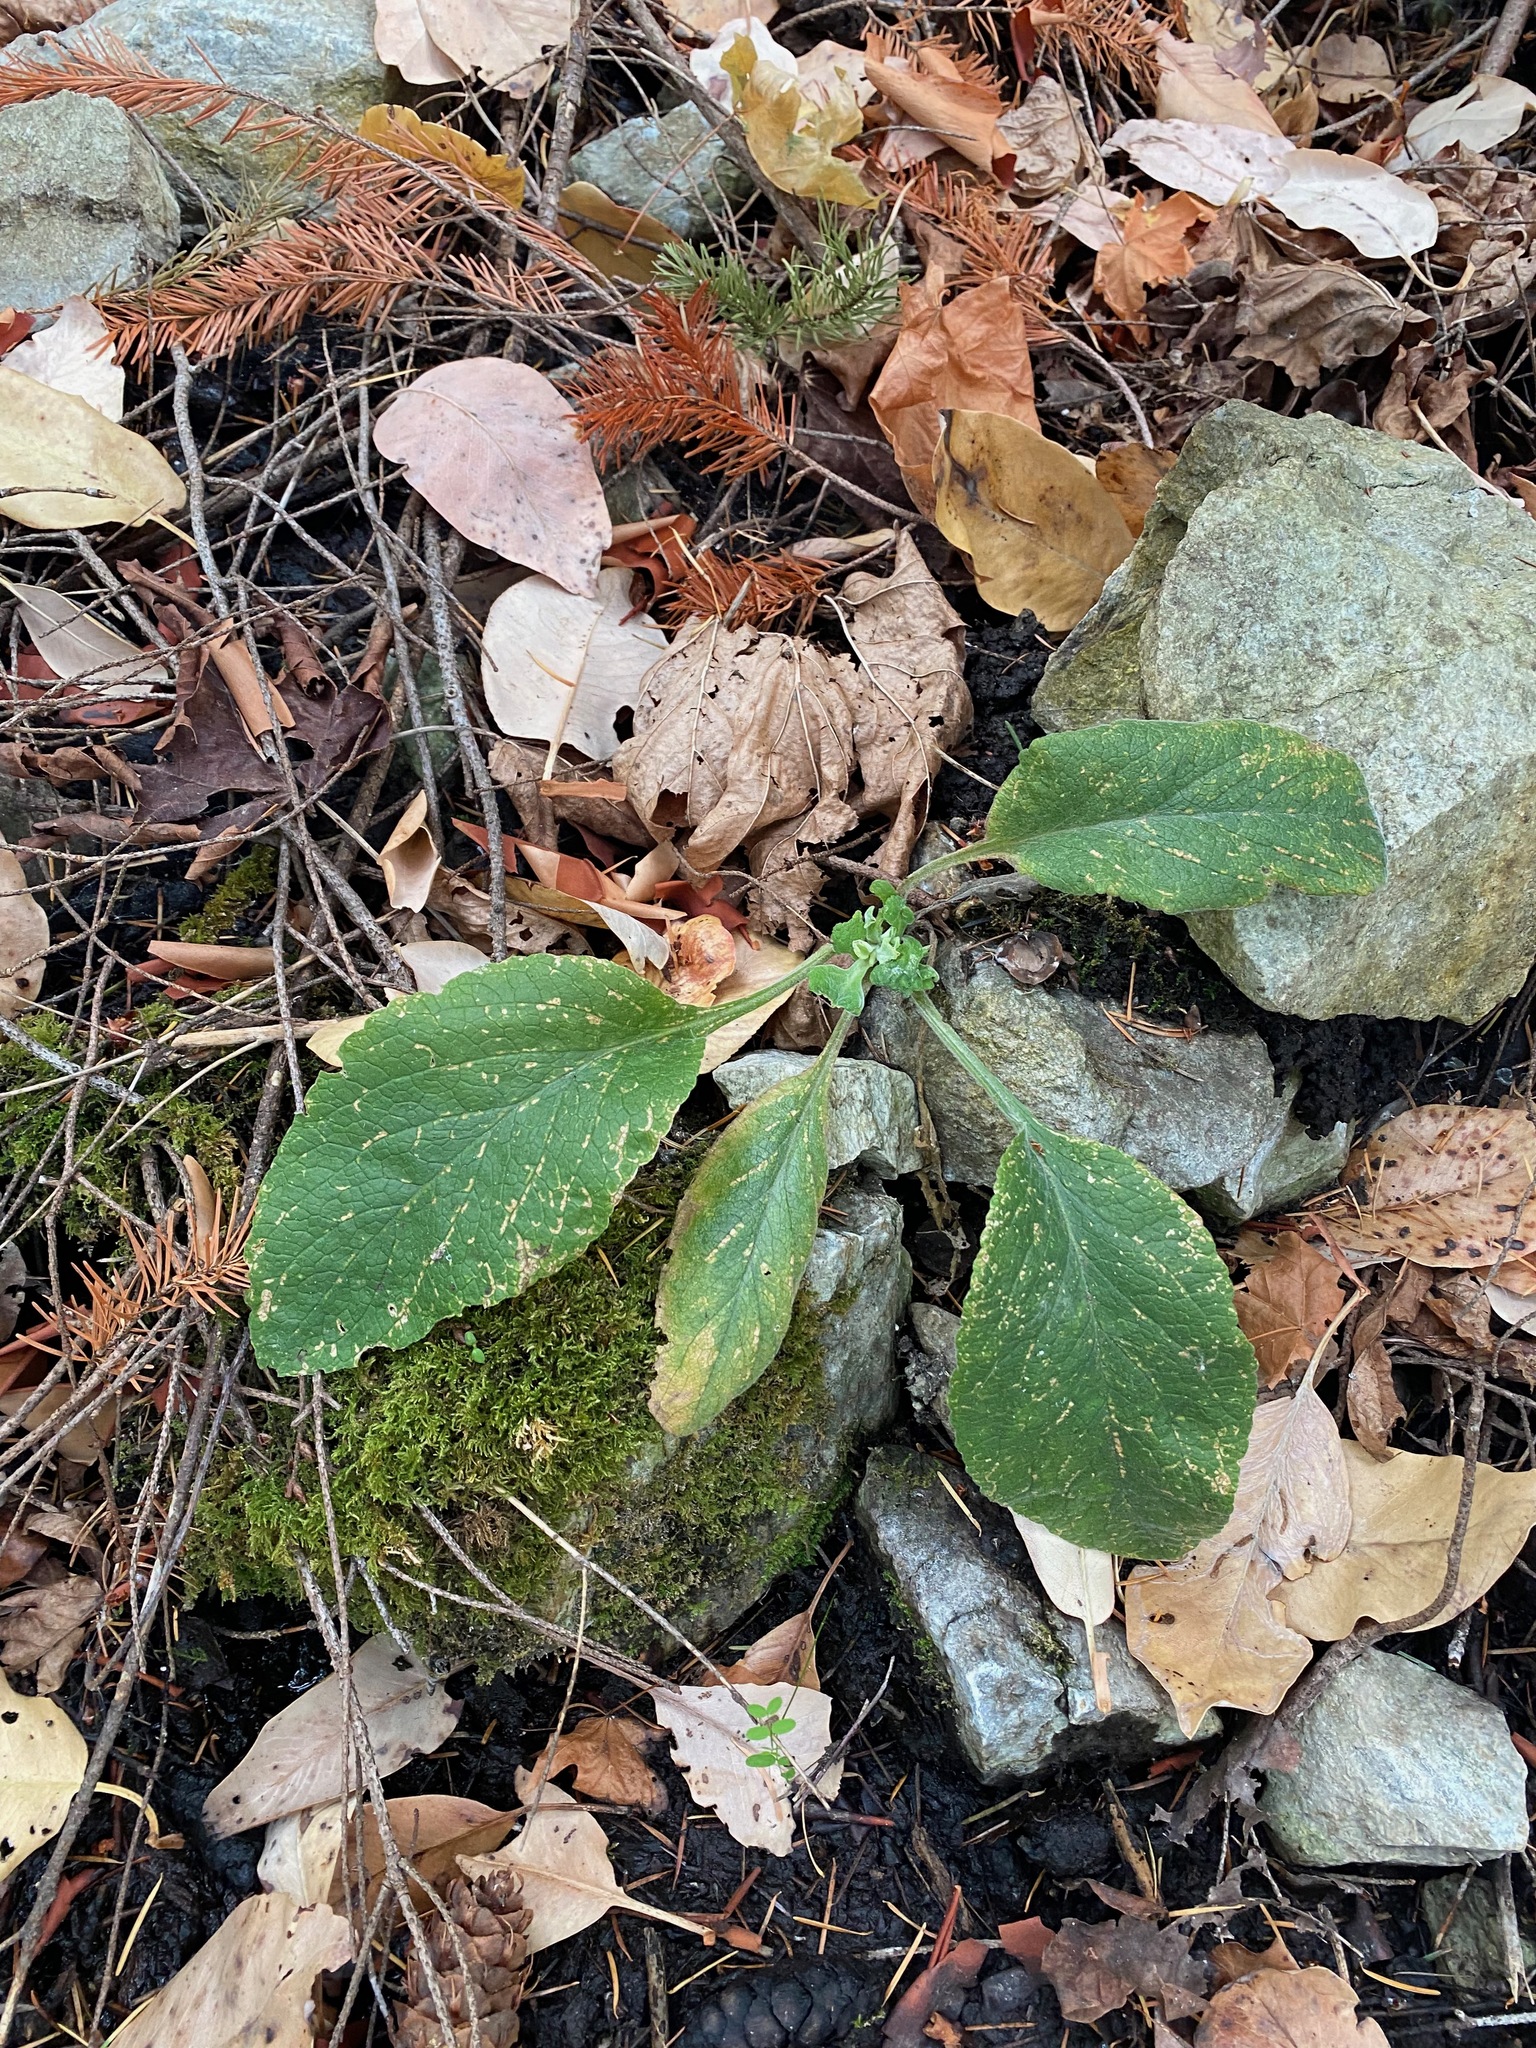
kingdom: Plantae
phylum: Tracheophyta
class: Magnoliopsida
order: Lamiales
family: Plantaginaceae
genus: Digitalis
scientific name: Digitalis purpurea
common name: Foxglove
